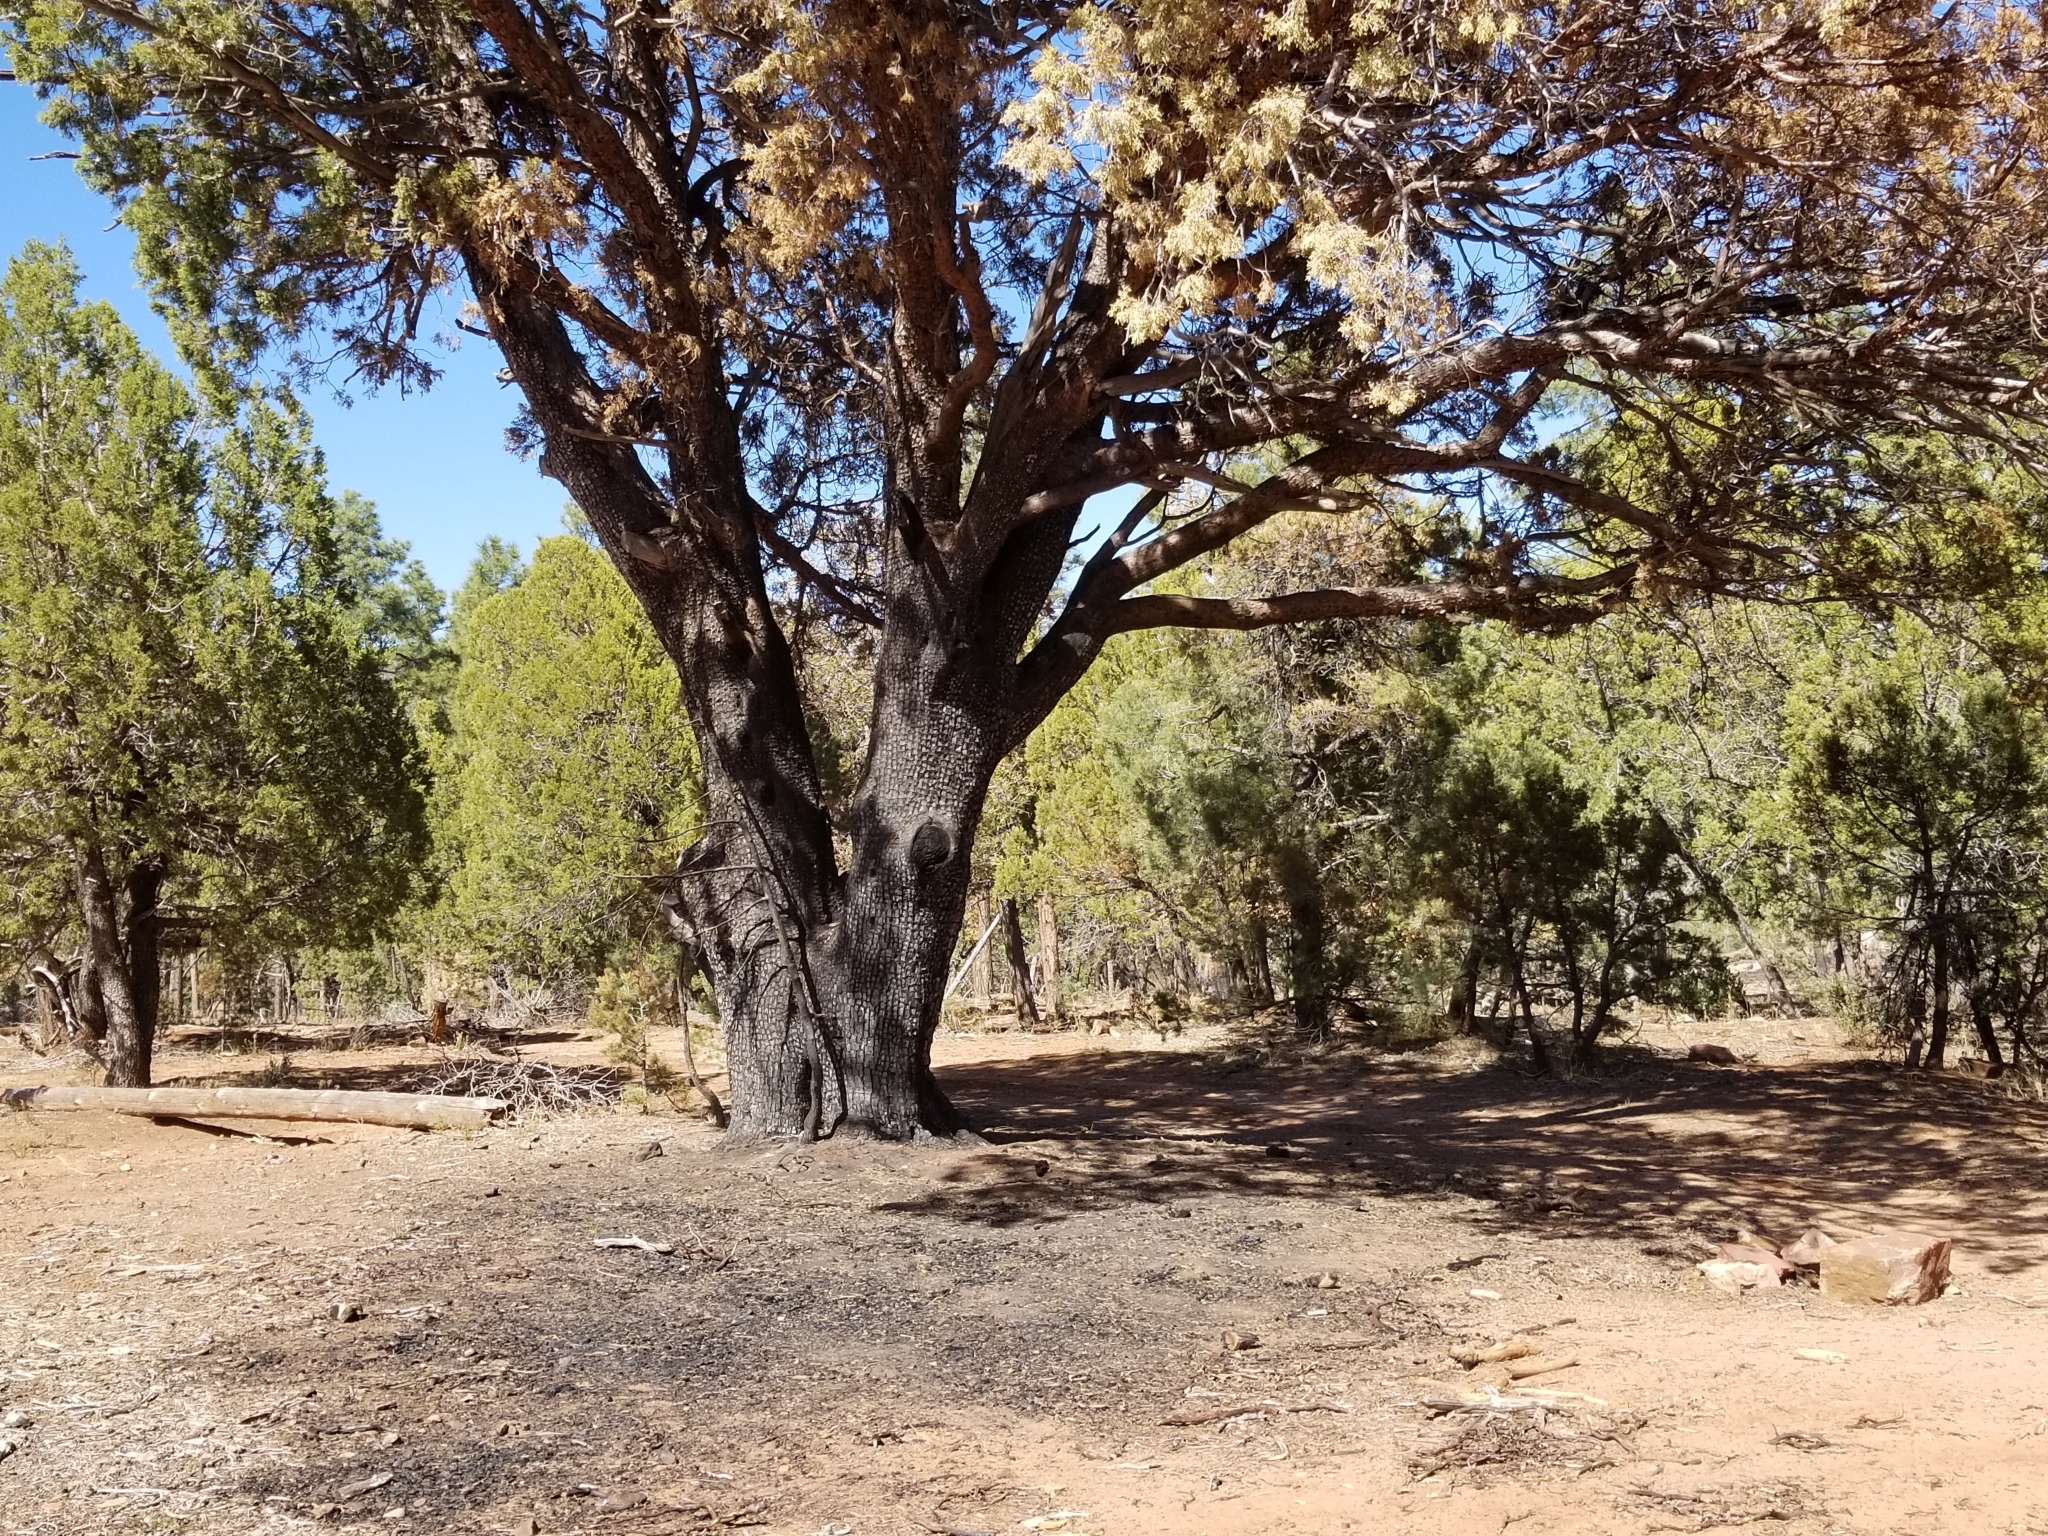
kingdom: Plantae
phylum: Tracheophyta
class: Pinopsida
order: Pinales
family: Cupressaceae
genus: Juniperus
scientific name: Juniperus deppeana
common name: Alligator juniper
